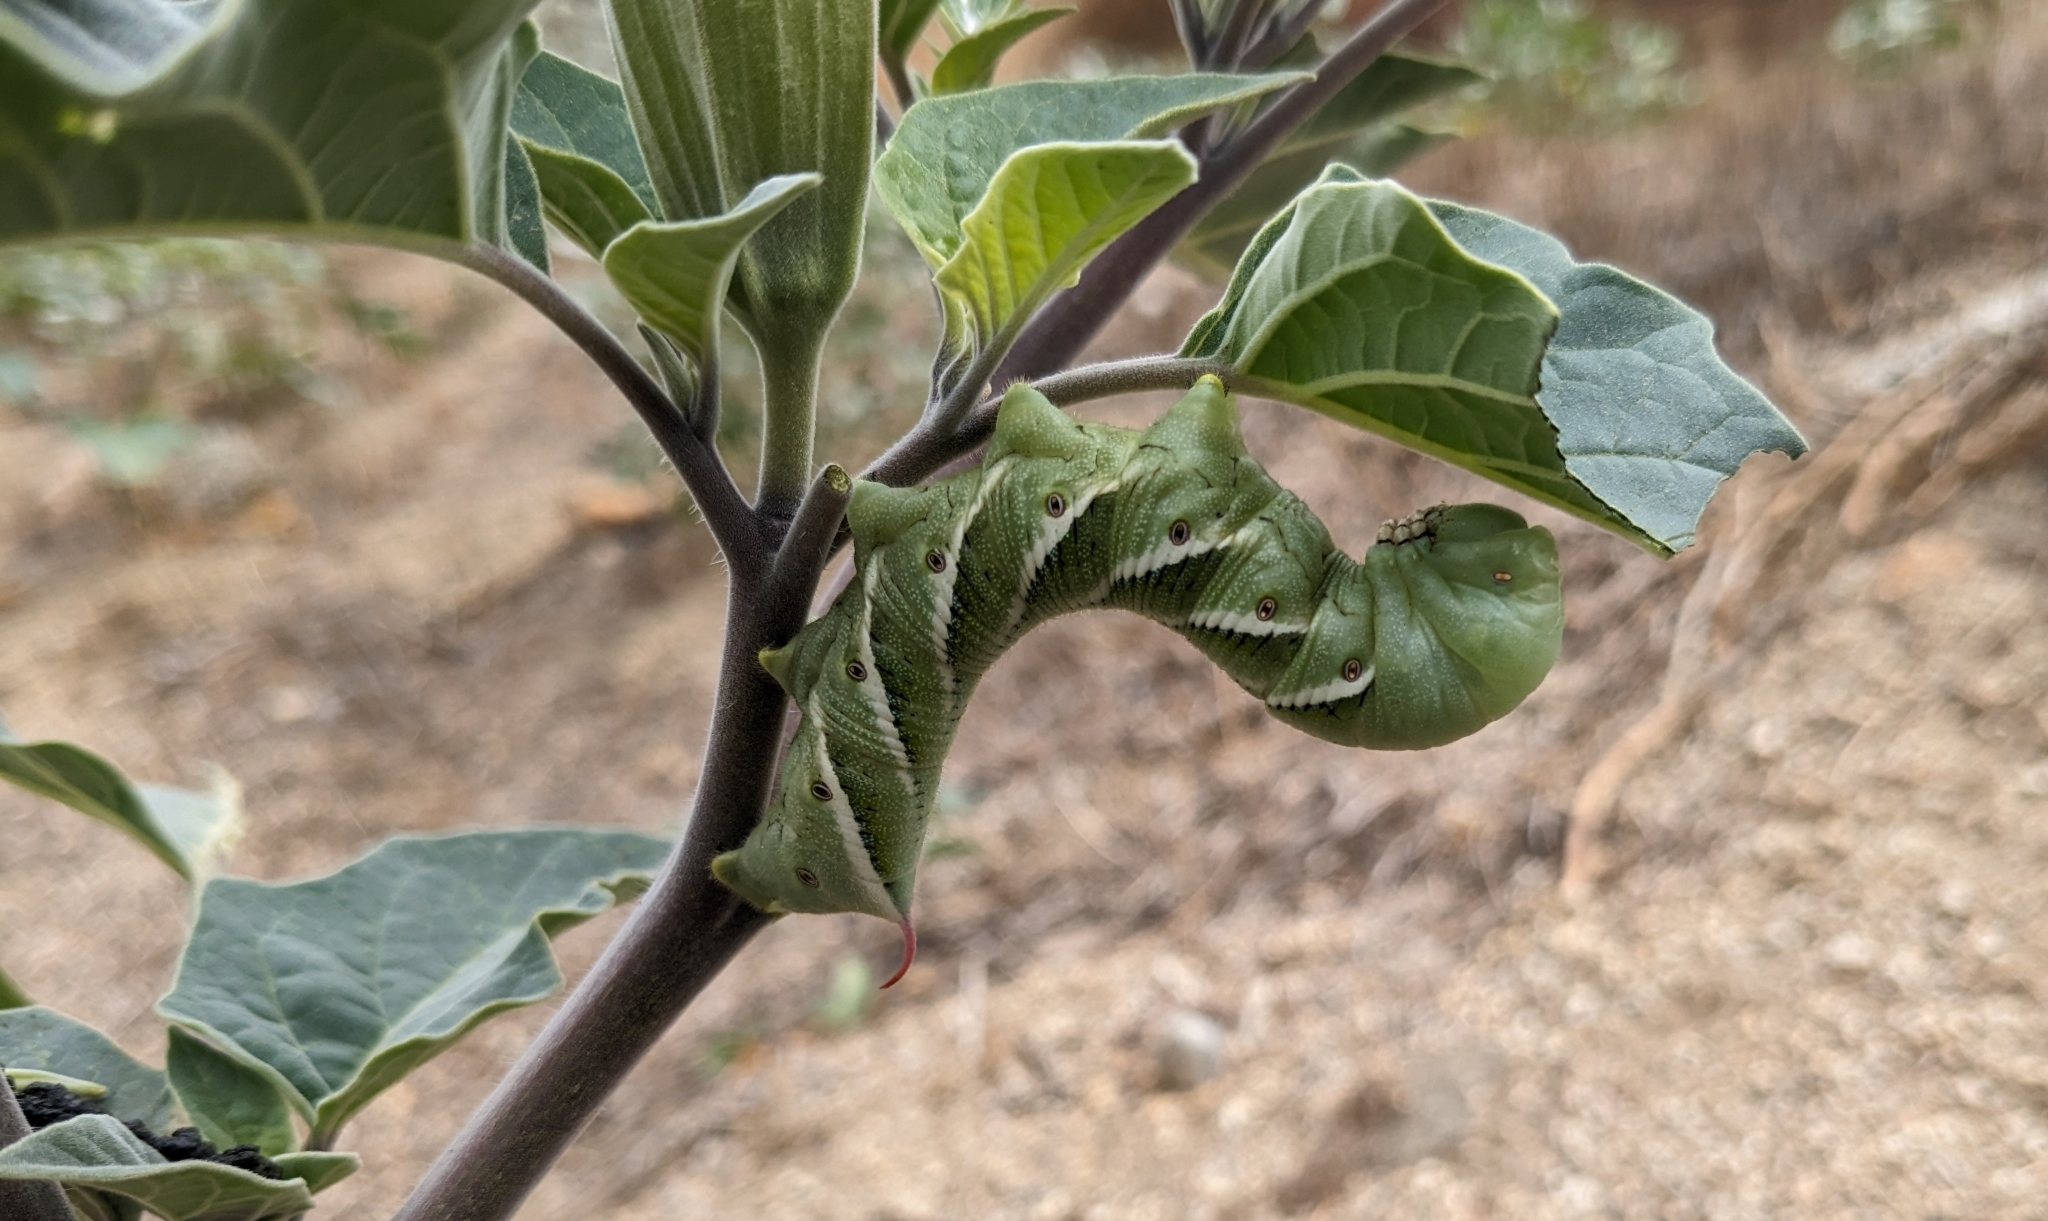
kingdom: Animalia
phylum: Arthropoda
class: Insecta
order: Lepidoptera
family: Sphingidae
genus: Manduca
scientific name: Manduca sexta
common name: Carolina sphinx
